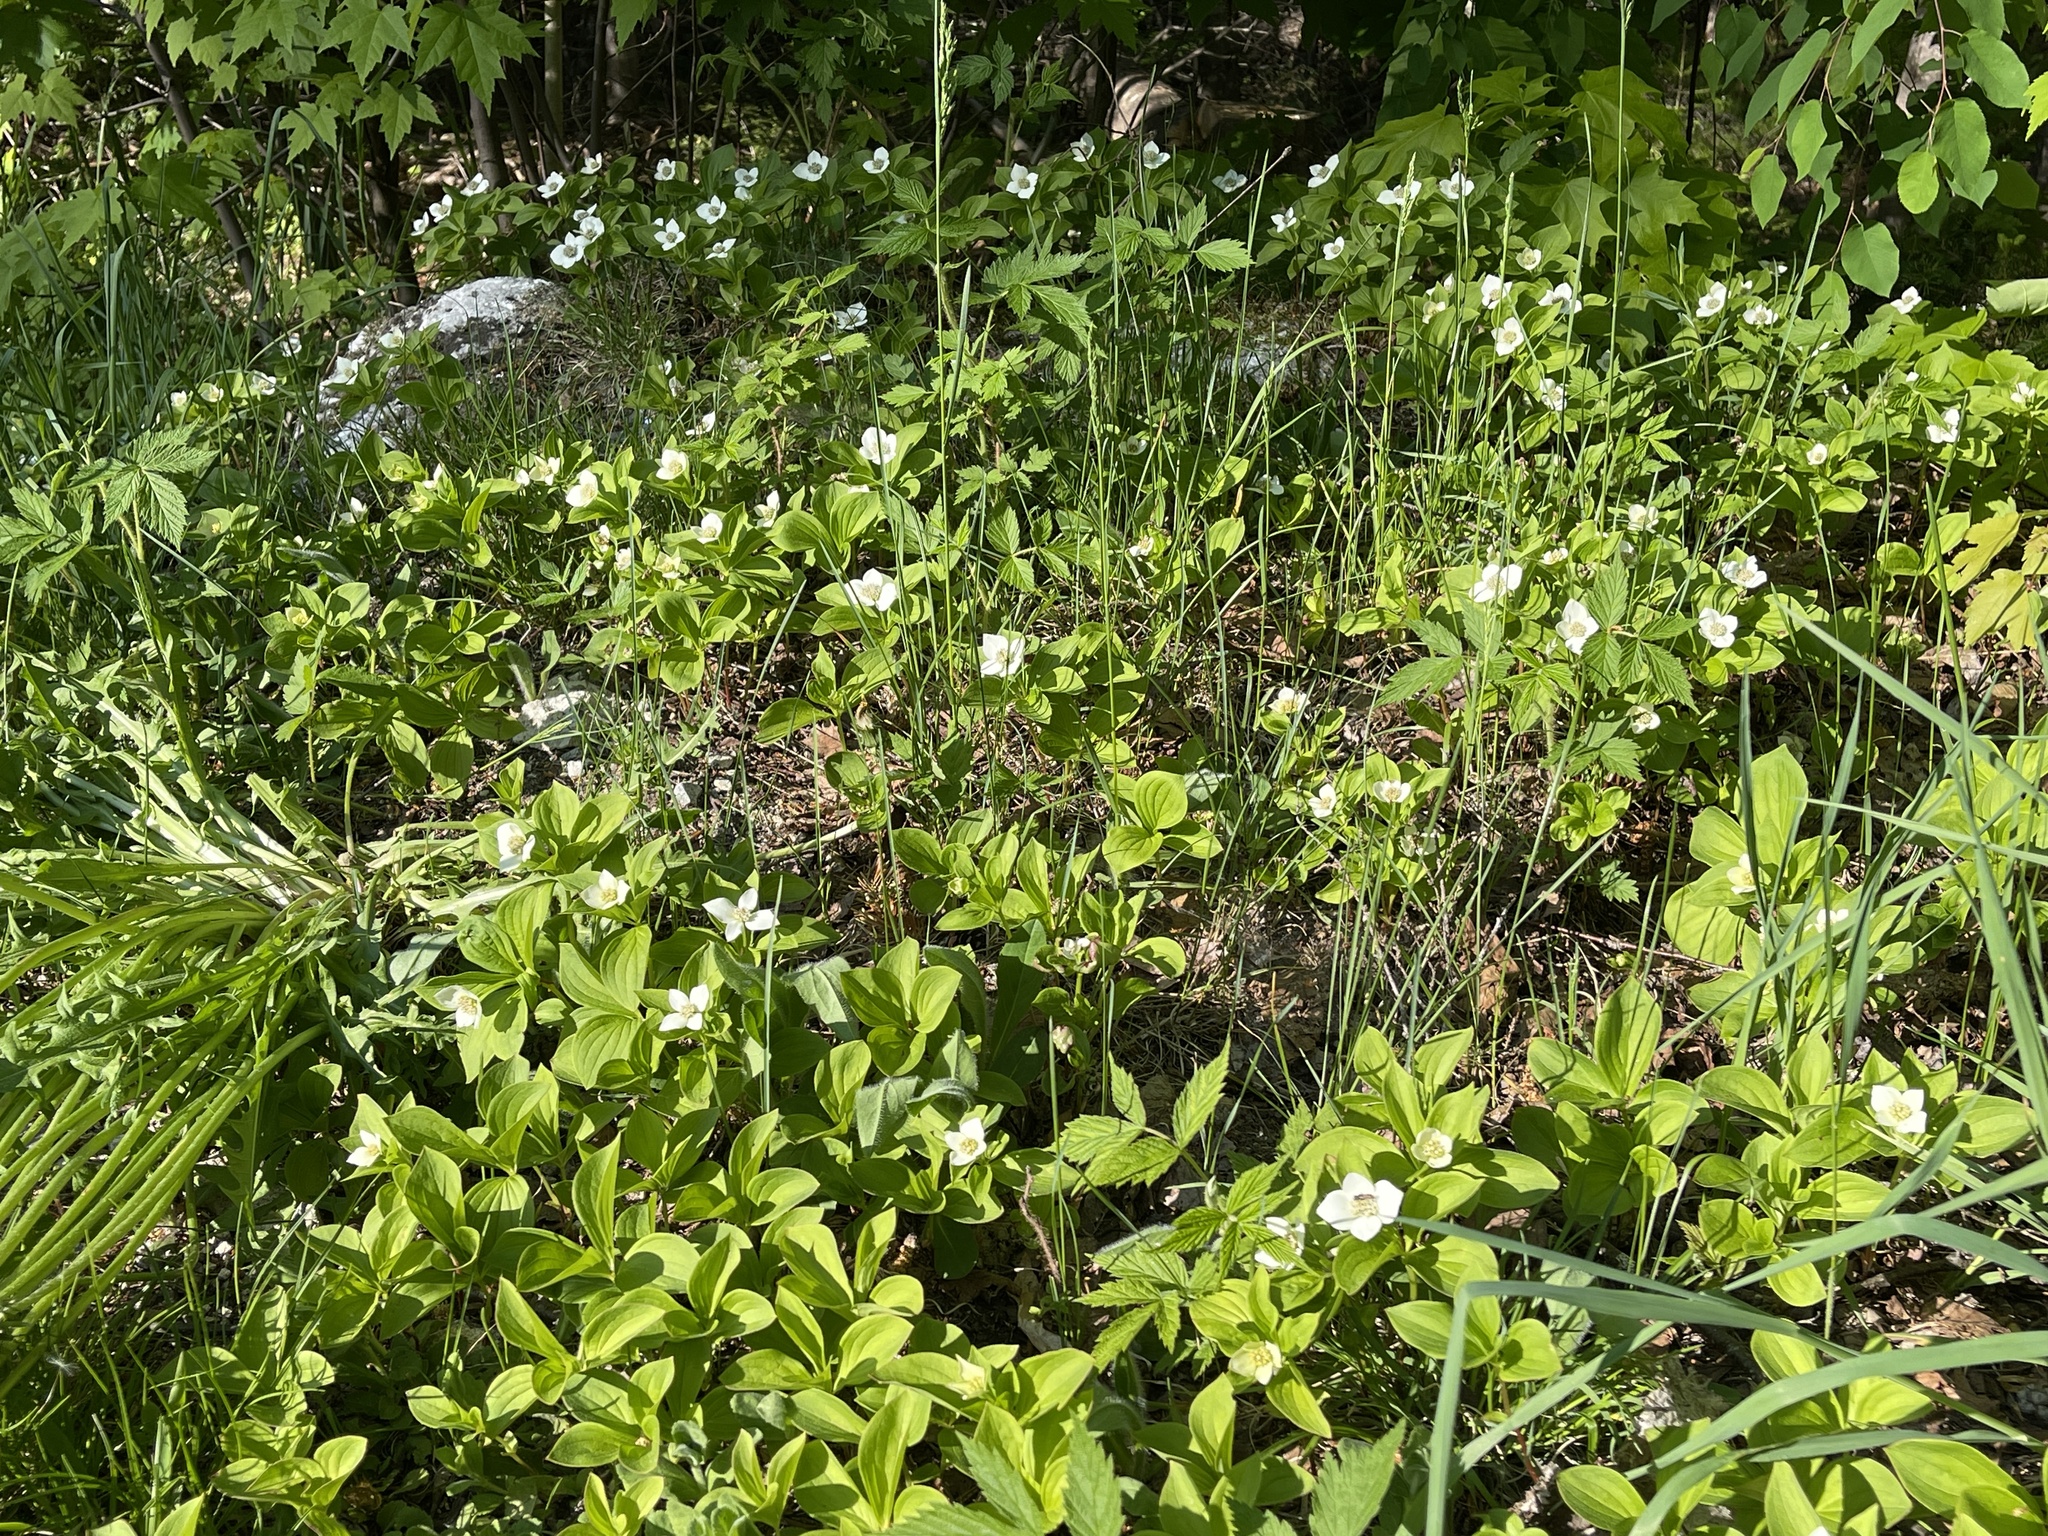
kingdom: Plantae
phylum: Tracheophyta
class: Magnoliopsida
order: Cornales
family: Cornaceae
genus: Cornus
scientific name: Cornus canadensis
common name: Creeping dogwood
